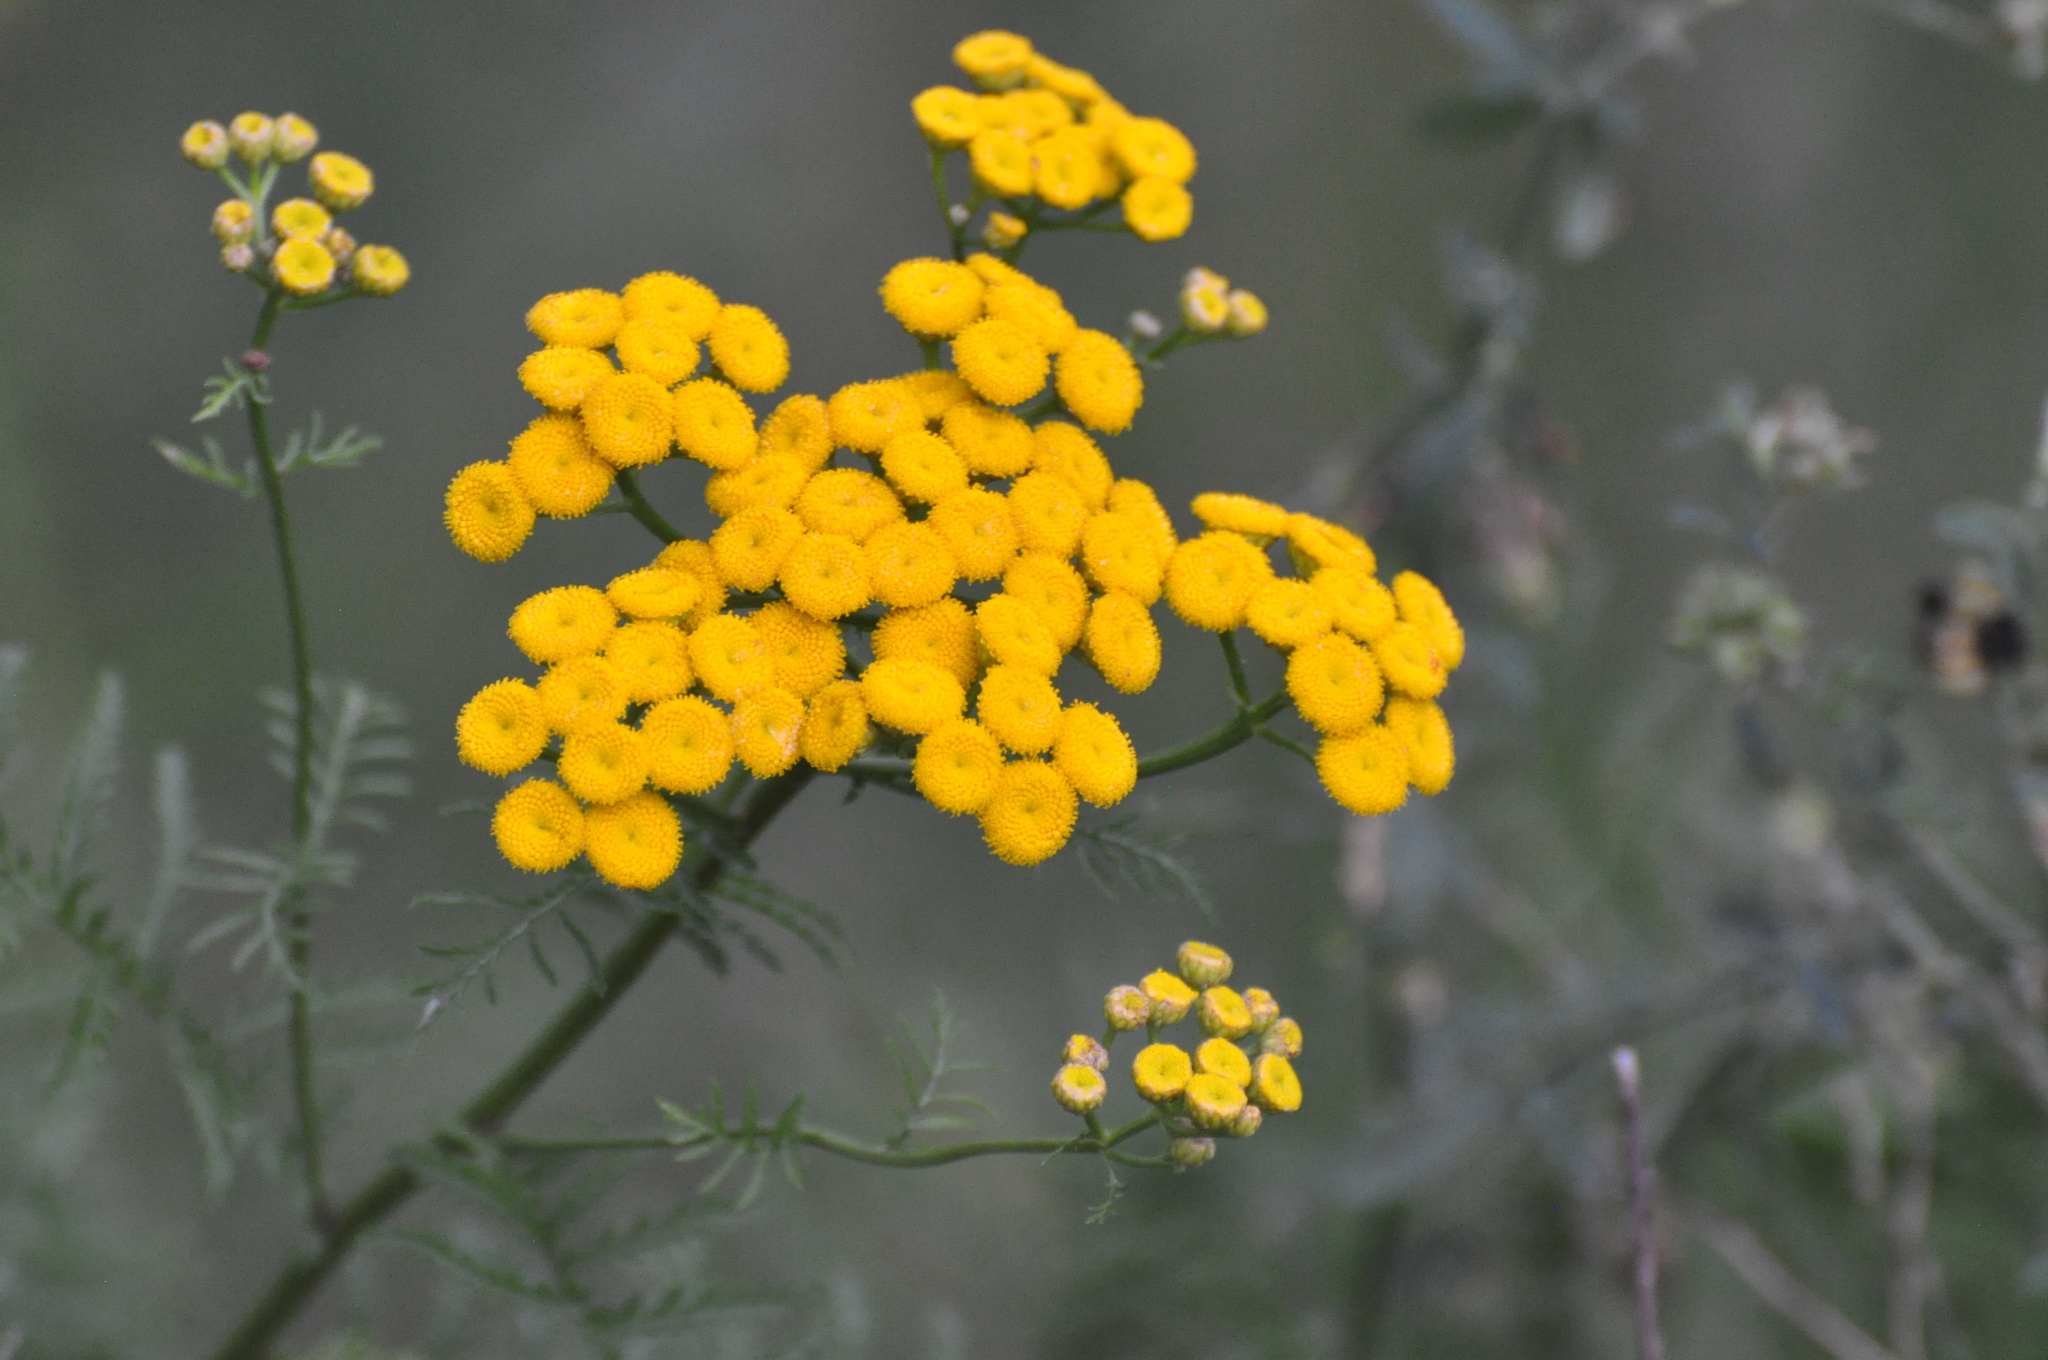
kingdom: Plantae
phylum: Tracheophyta
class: Magnoliopsida
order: Asterales
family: Asteraceae
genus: Tanacetum
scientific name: Tanacetum vulgare
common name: Common tansy
